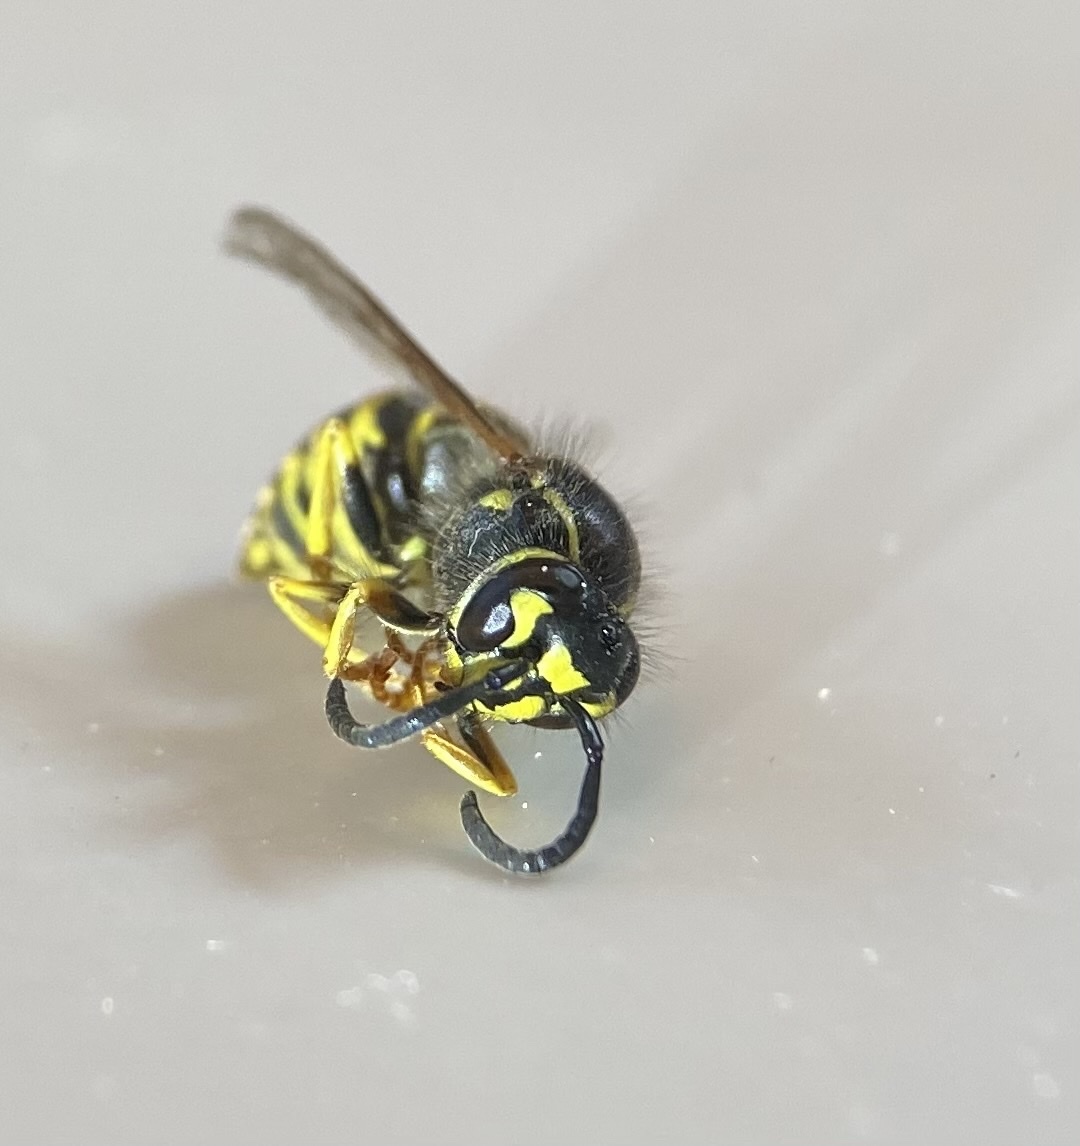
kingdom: Animalia
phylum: Arthropoda
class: Insecta
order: Hymenoptera
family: Vespidae
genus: Vespula
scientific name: Vespula alascensis
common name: Alaska yellowjacket
